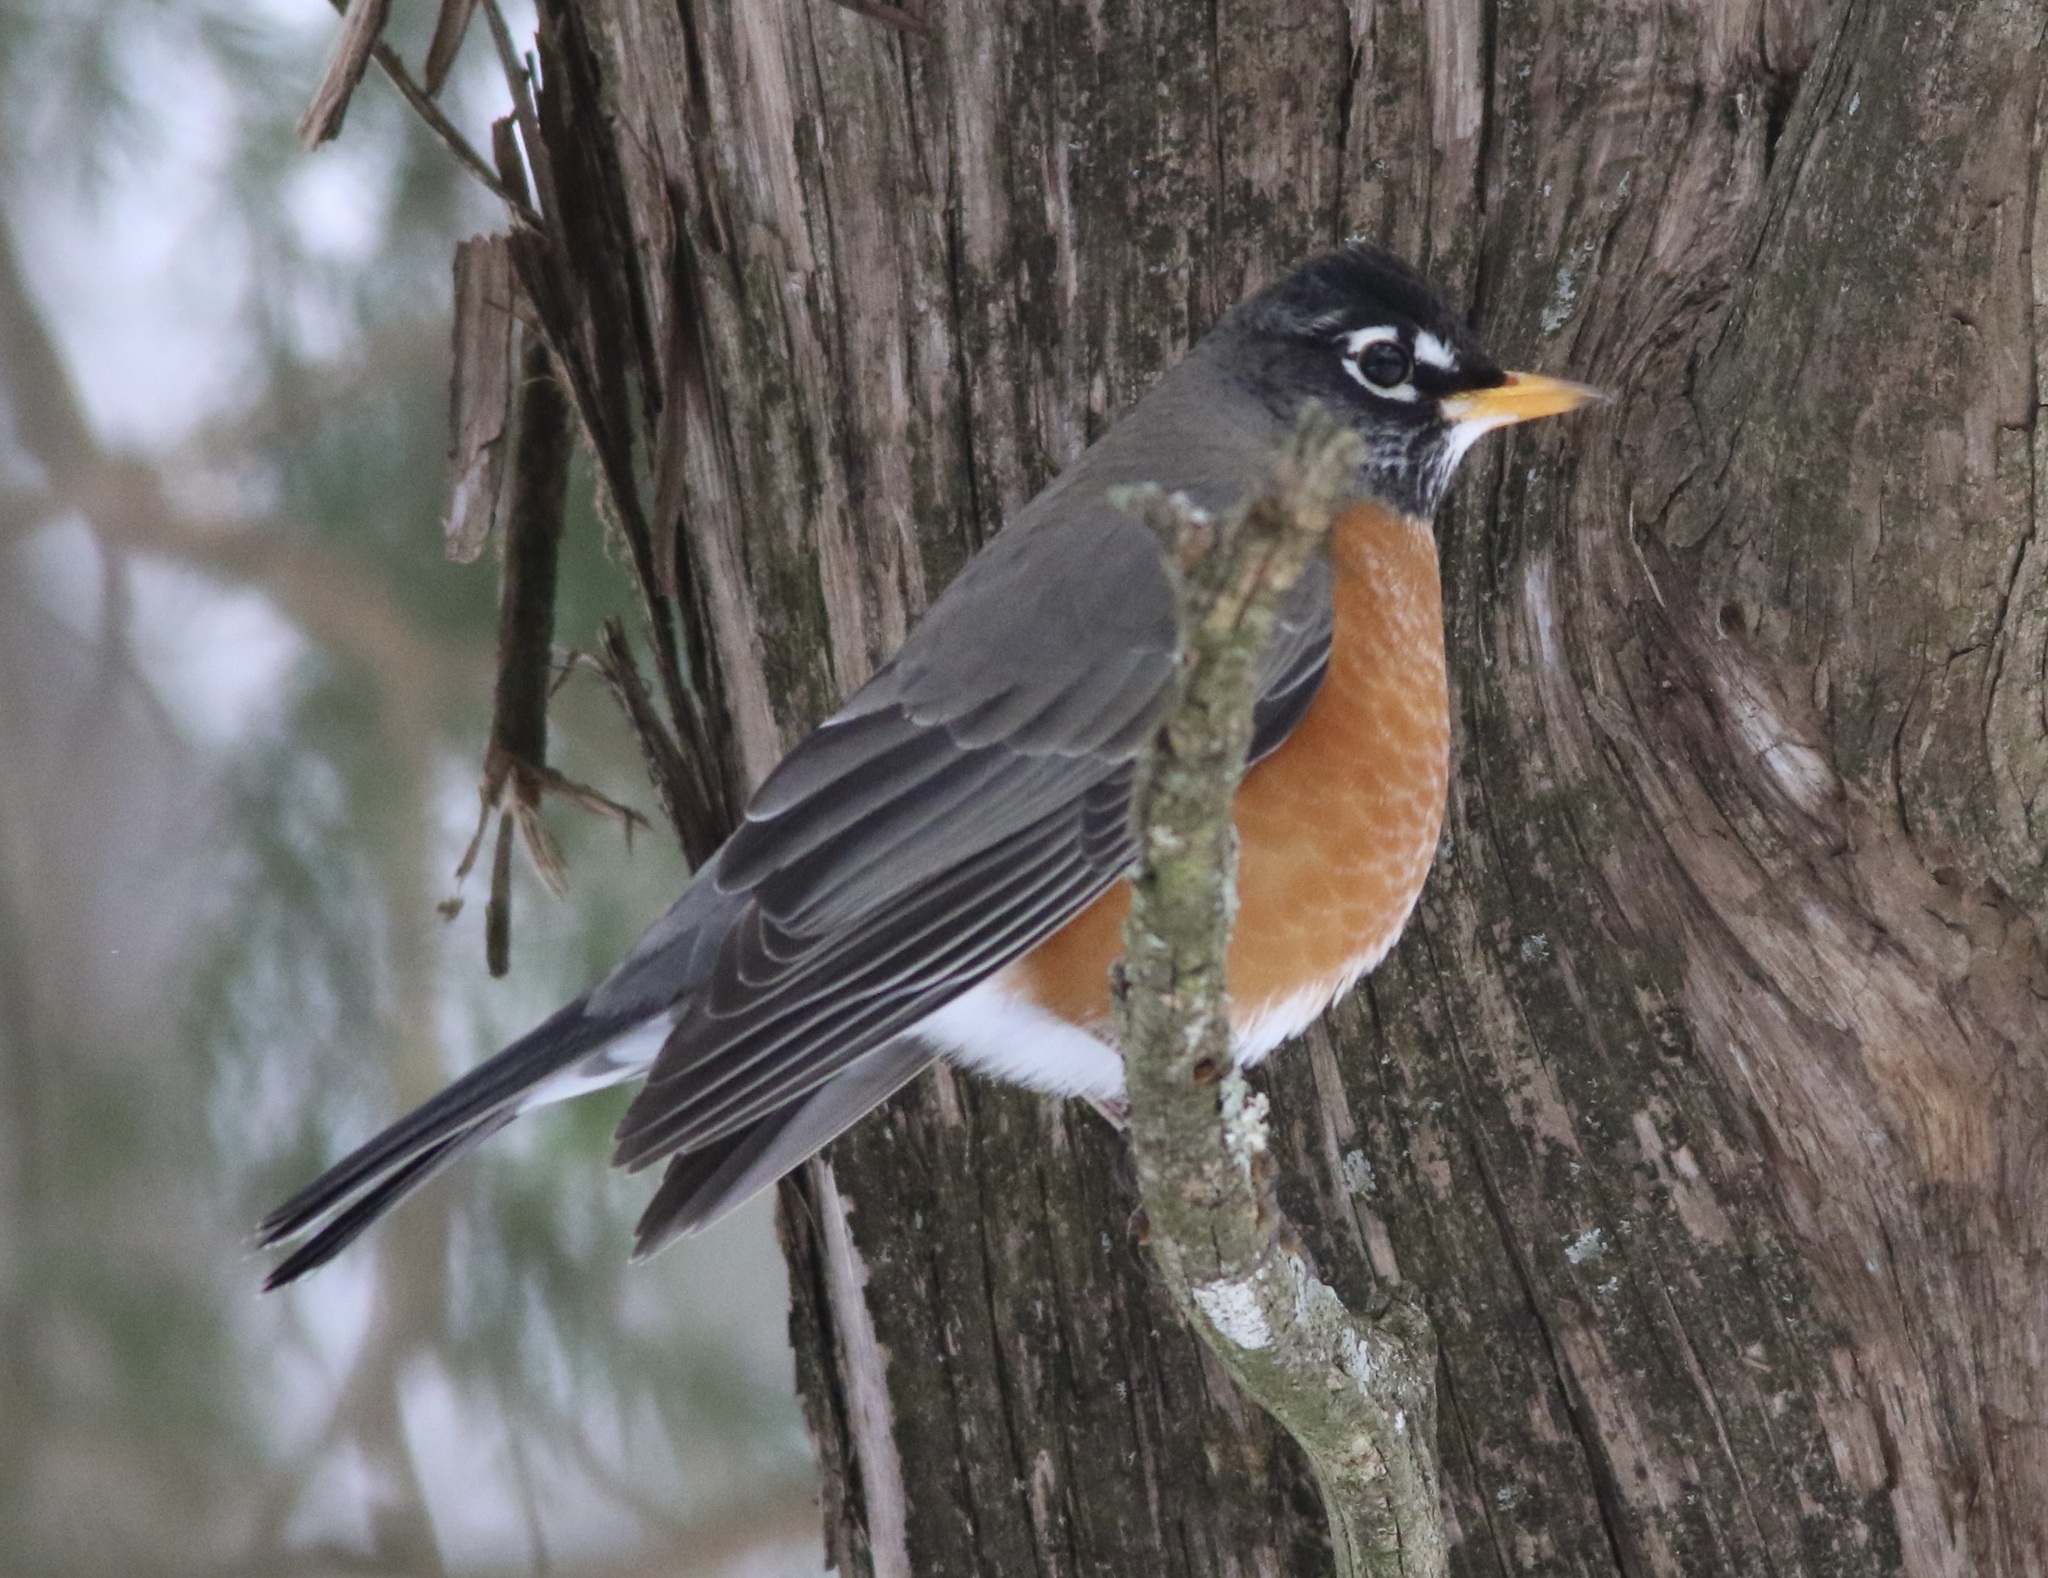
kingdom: Animalia
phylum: Chordata
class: Aves
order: Passeriformes
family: Turdidae
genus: Turdus
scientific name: Turdus migratorius
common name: American robin
